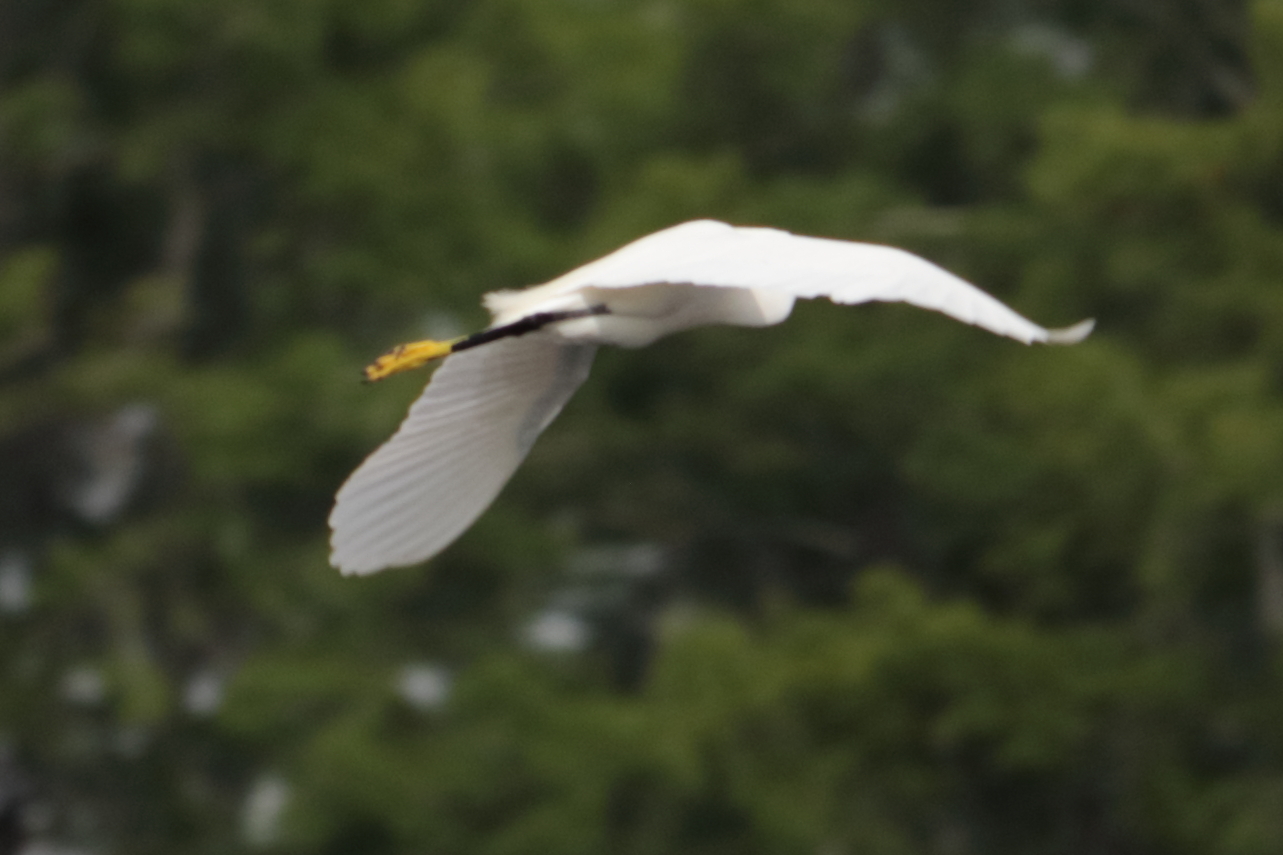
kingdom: Animalia
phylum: Chordata
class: Aves
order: Pelecaniformes
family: Ardeidae
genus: Egretta
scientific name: Egretta thula
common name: Snowy egret
